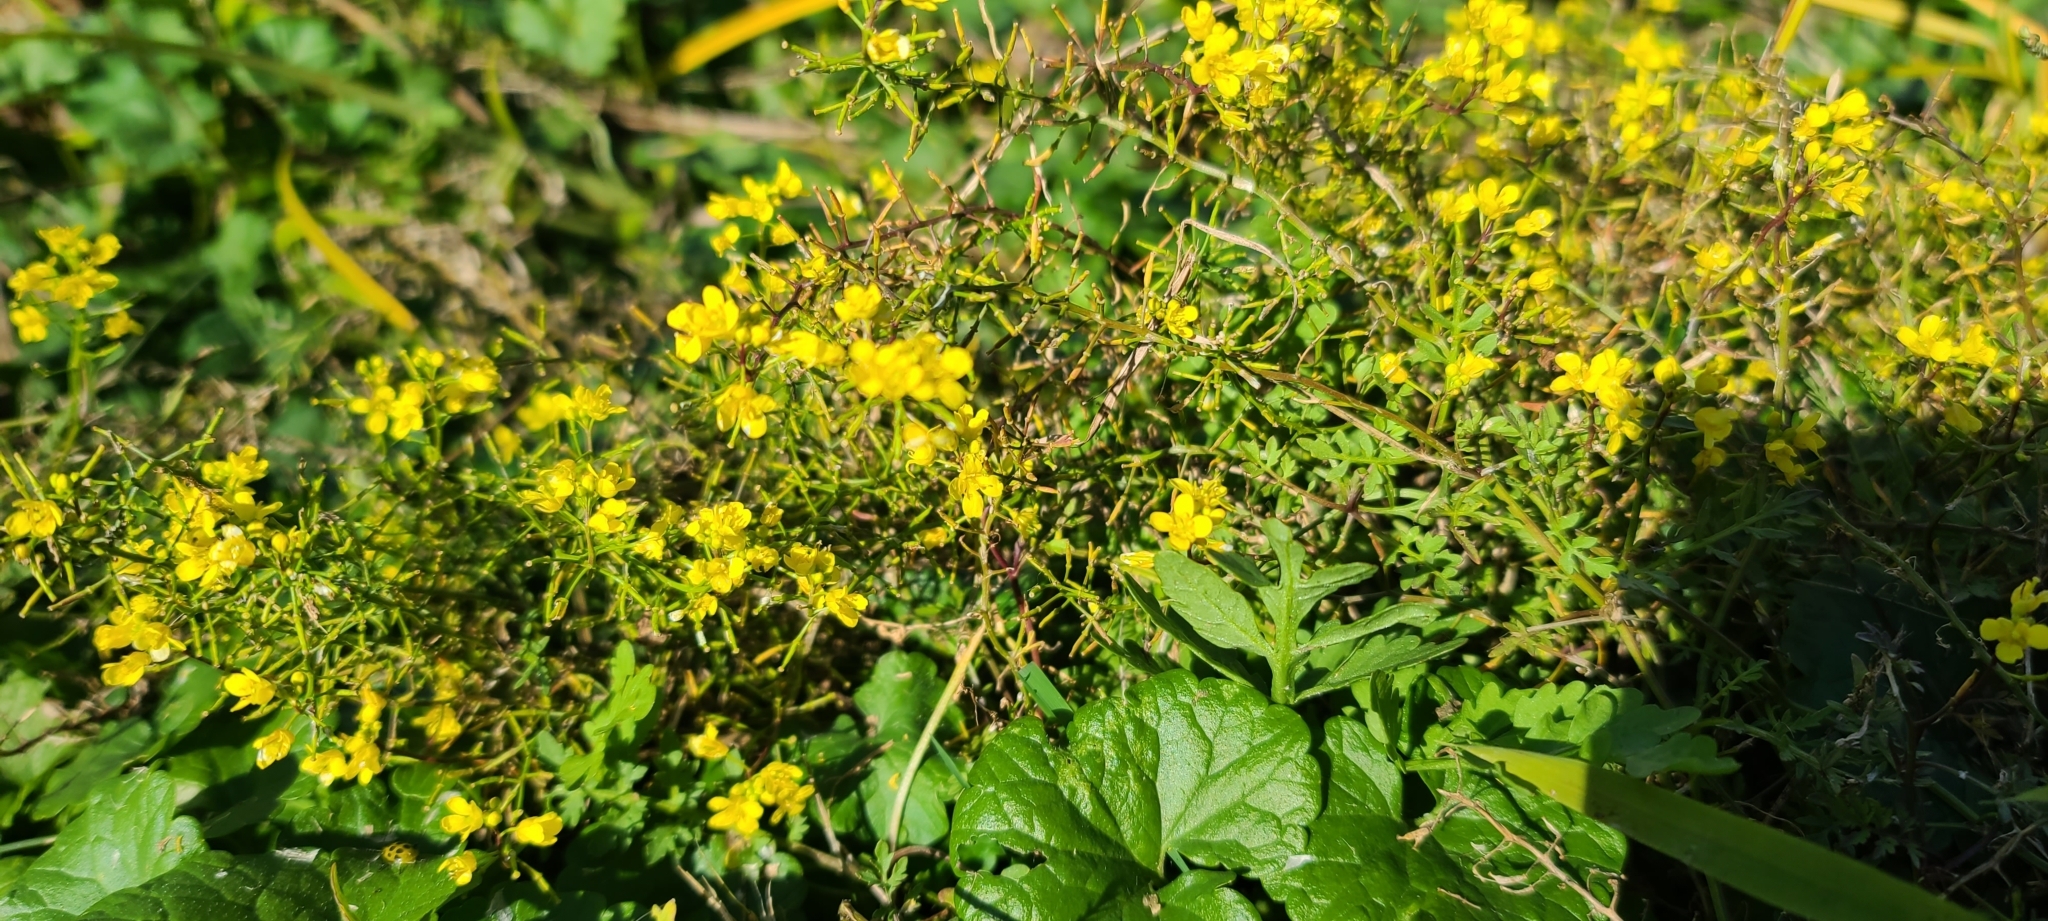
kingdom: Plantae
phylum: Tracheophyta
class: Magnoliopsida
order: Fabales
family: Fabaceae
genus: Melilotus
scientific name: Melilotus officinalis
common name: Sweetclover
